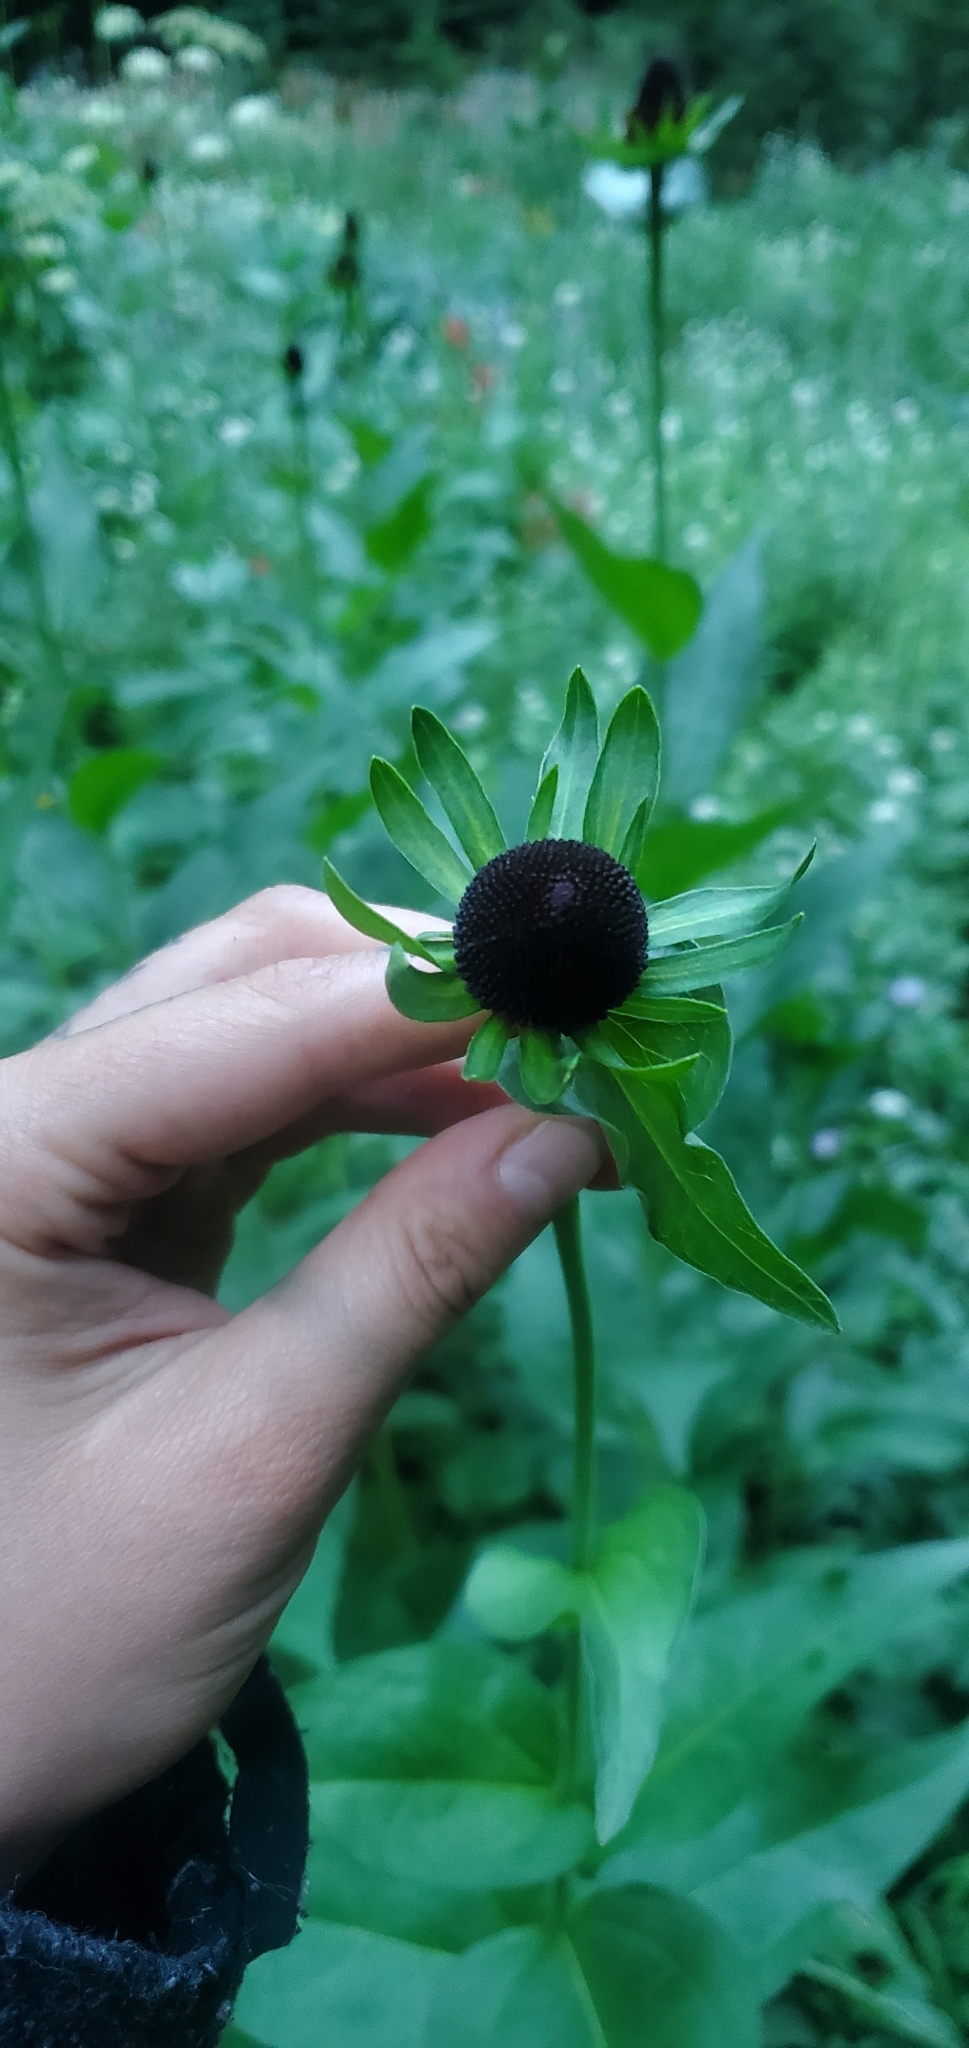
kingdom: Plantae
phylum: Tracheophyta
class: Magnoliopsida
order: Asterales
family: Asteraceae
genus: Rudbeckia
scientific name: Rudbeckia occidentalis
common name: Western coneflower
